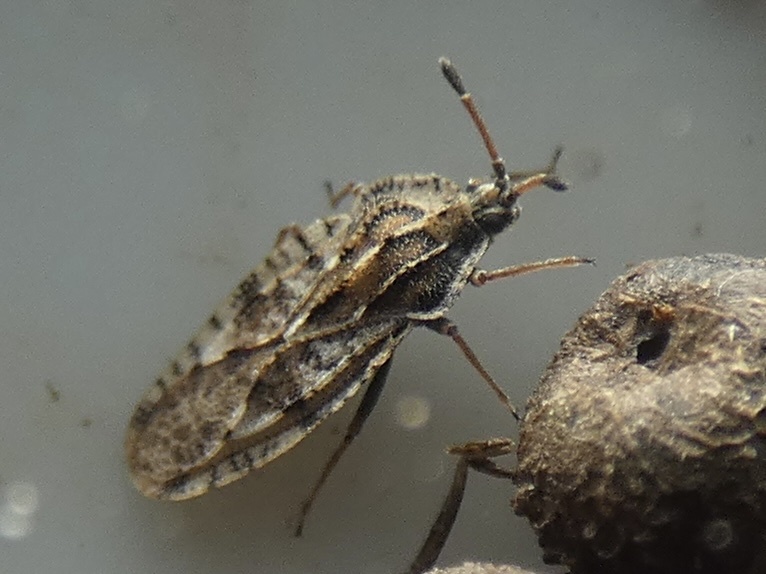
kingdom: Animalia
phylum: Arthropoda
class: Insecta
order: Hemiptera
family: Tingidae
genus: Tingis
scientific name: Tingis cardui
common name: Spear thistle lacebug
